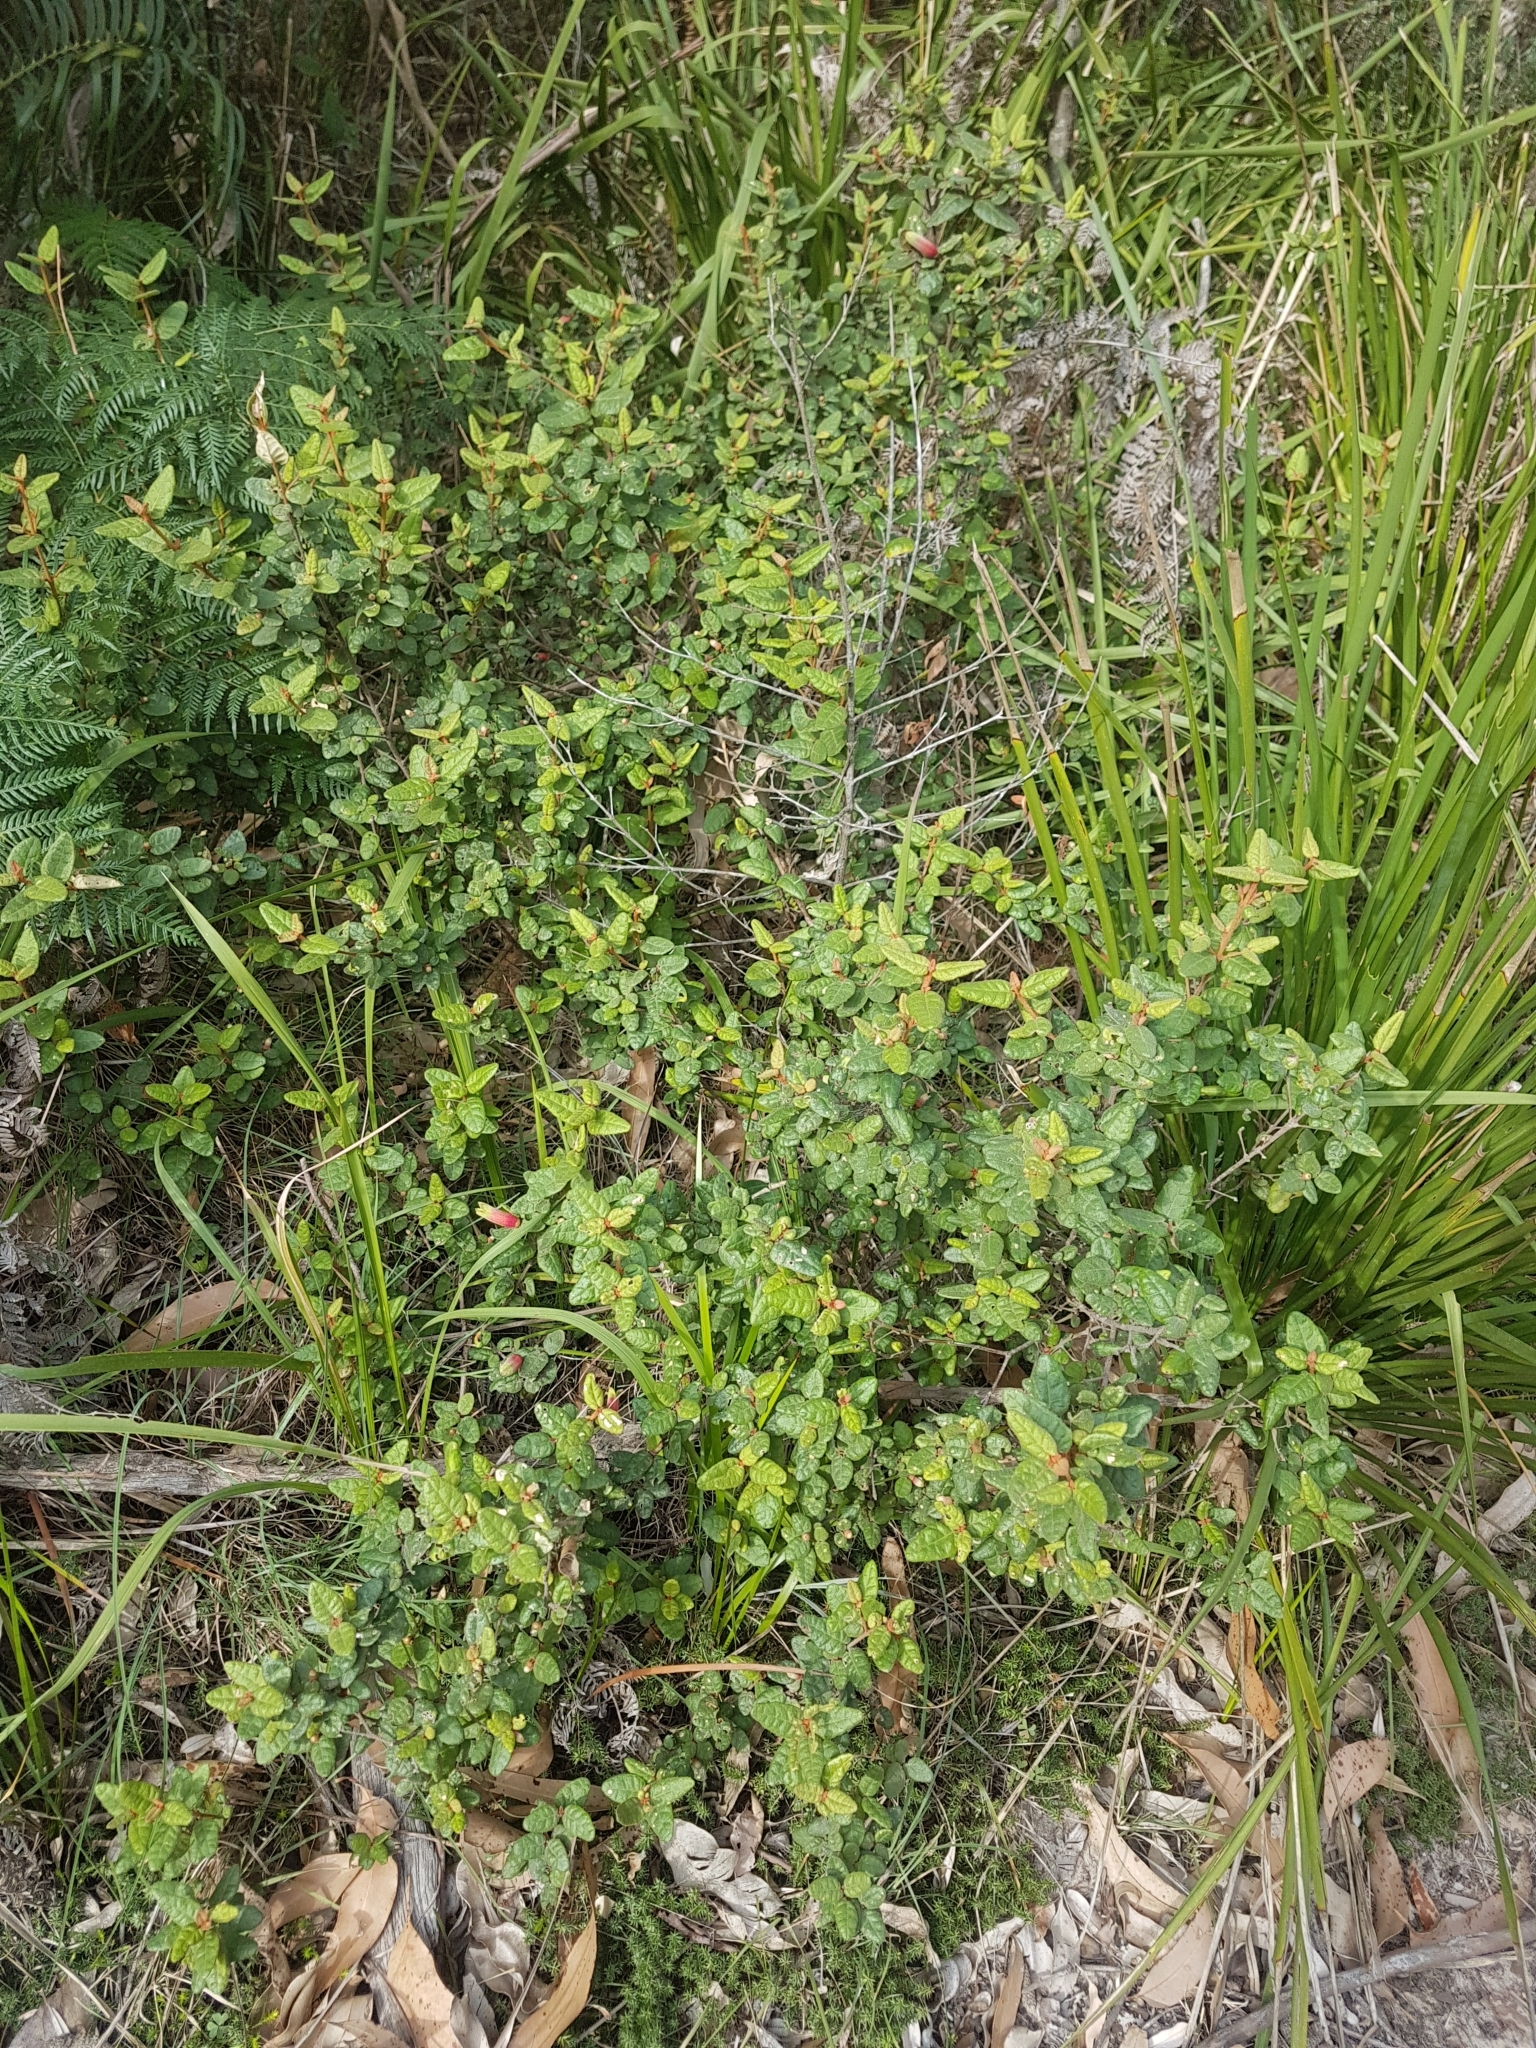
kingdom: Plantae
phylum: Tracheophyta
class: Magnoliopsida
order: Sapindales
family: Rutaceae
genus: Correa
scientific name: Correa reflexa
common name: Common correa
